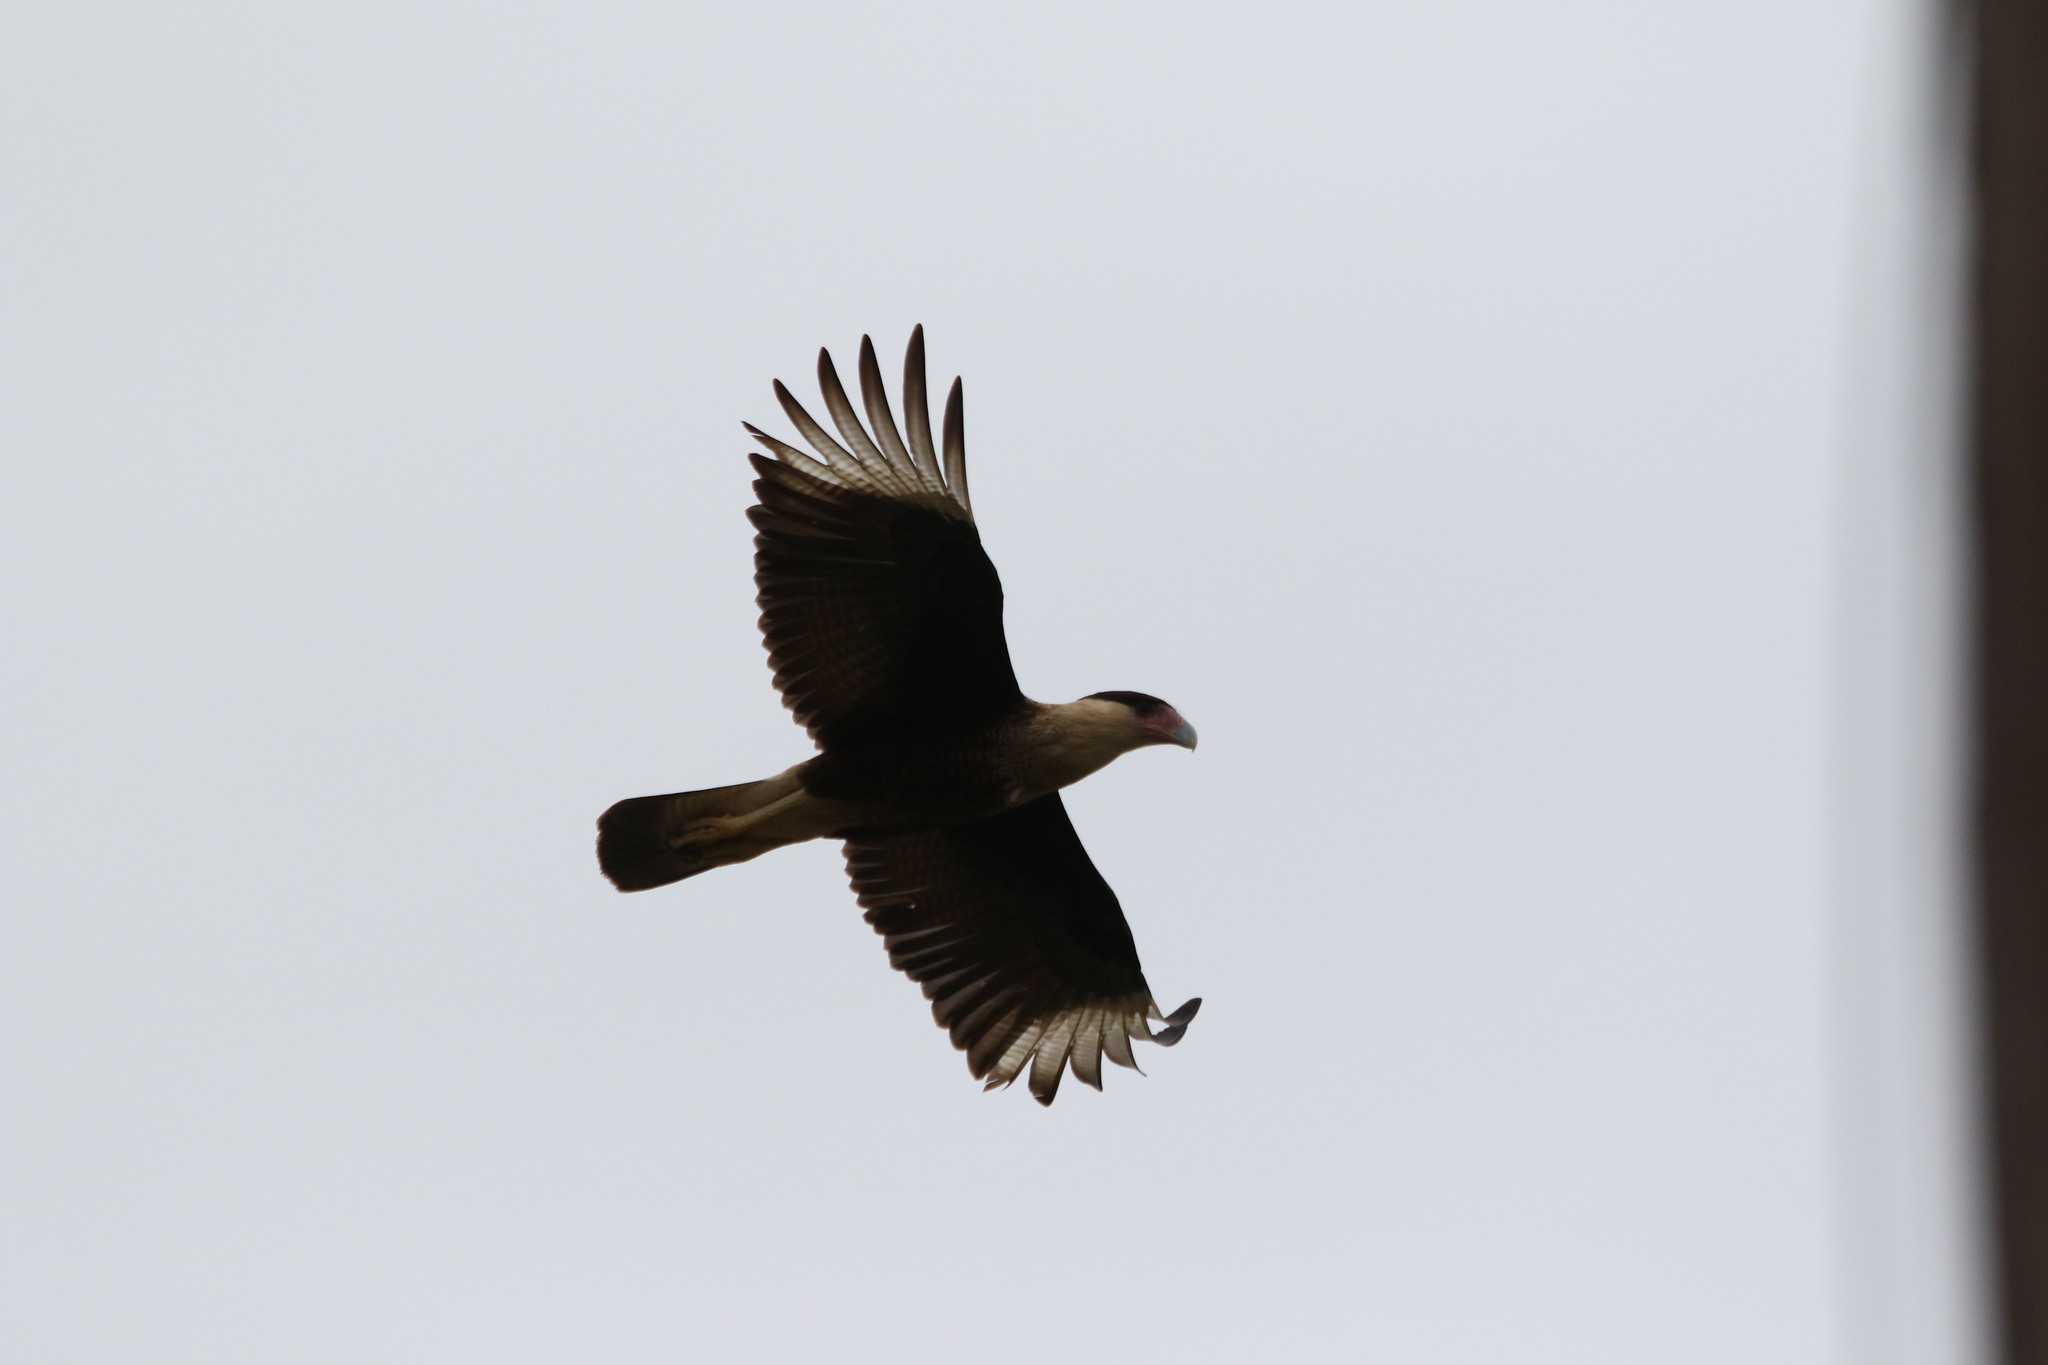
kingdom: Animalia
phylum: Chordata
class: Aves
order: Falconiformes
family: Falconidae
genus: Caracara
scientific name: Caracara plancus
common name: Southern caracara
